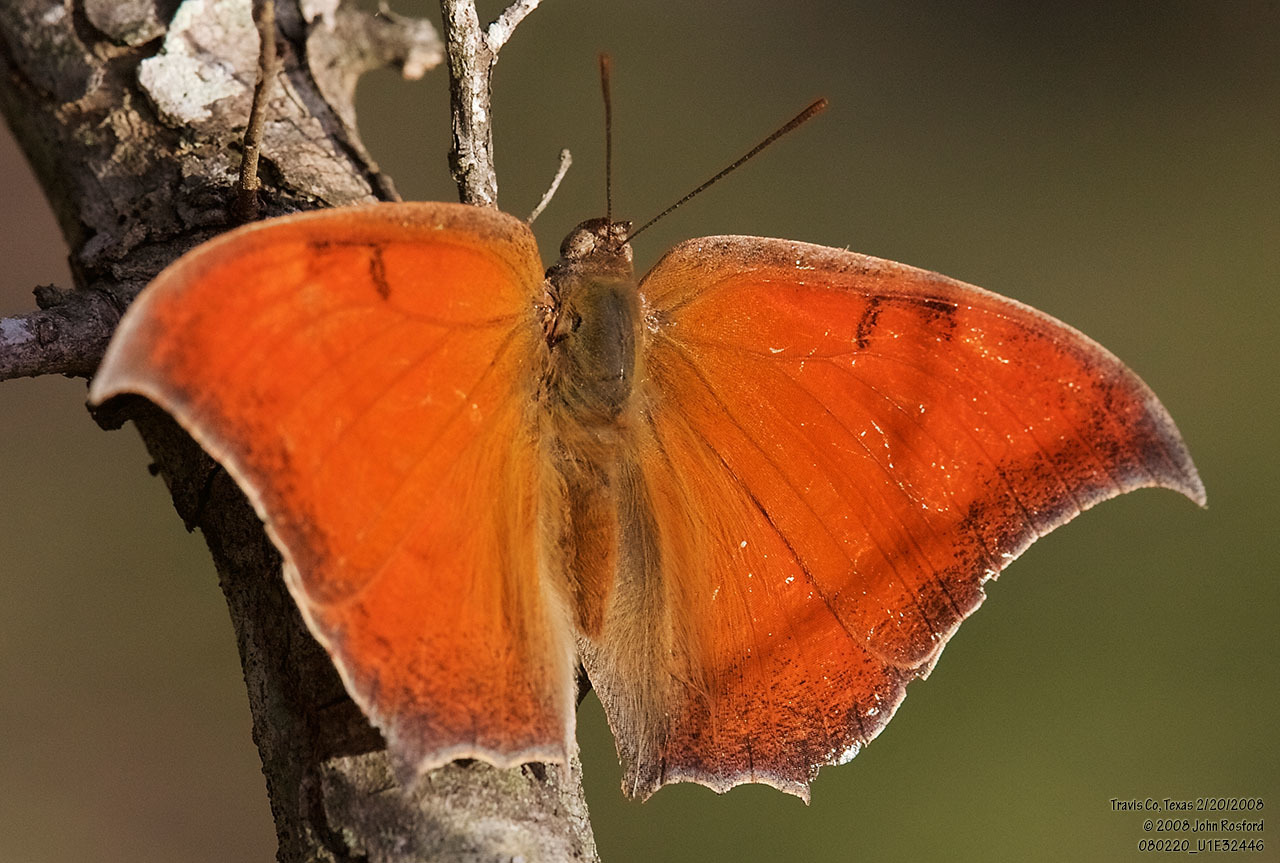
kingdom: Animalia
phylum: Arthropoda
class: Insecta
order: Lepidoptera
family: Nymphalidae
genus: Anaea
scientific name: Anaea andria
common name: Goatweed leafwing
